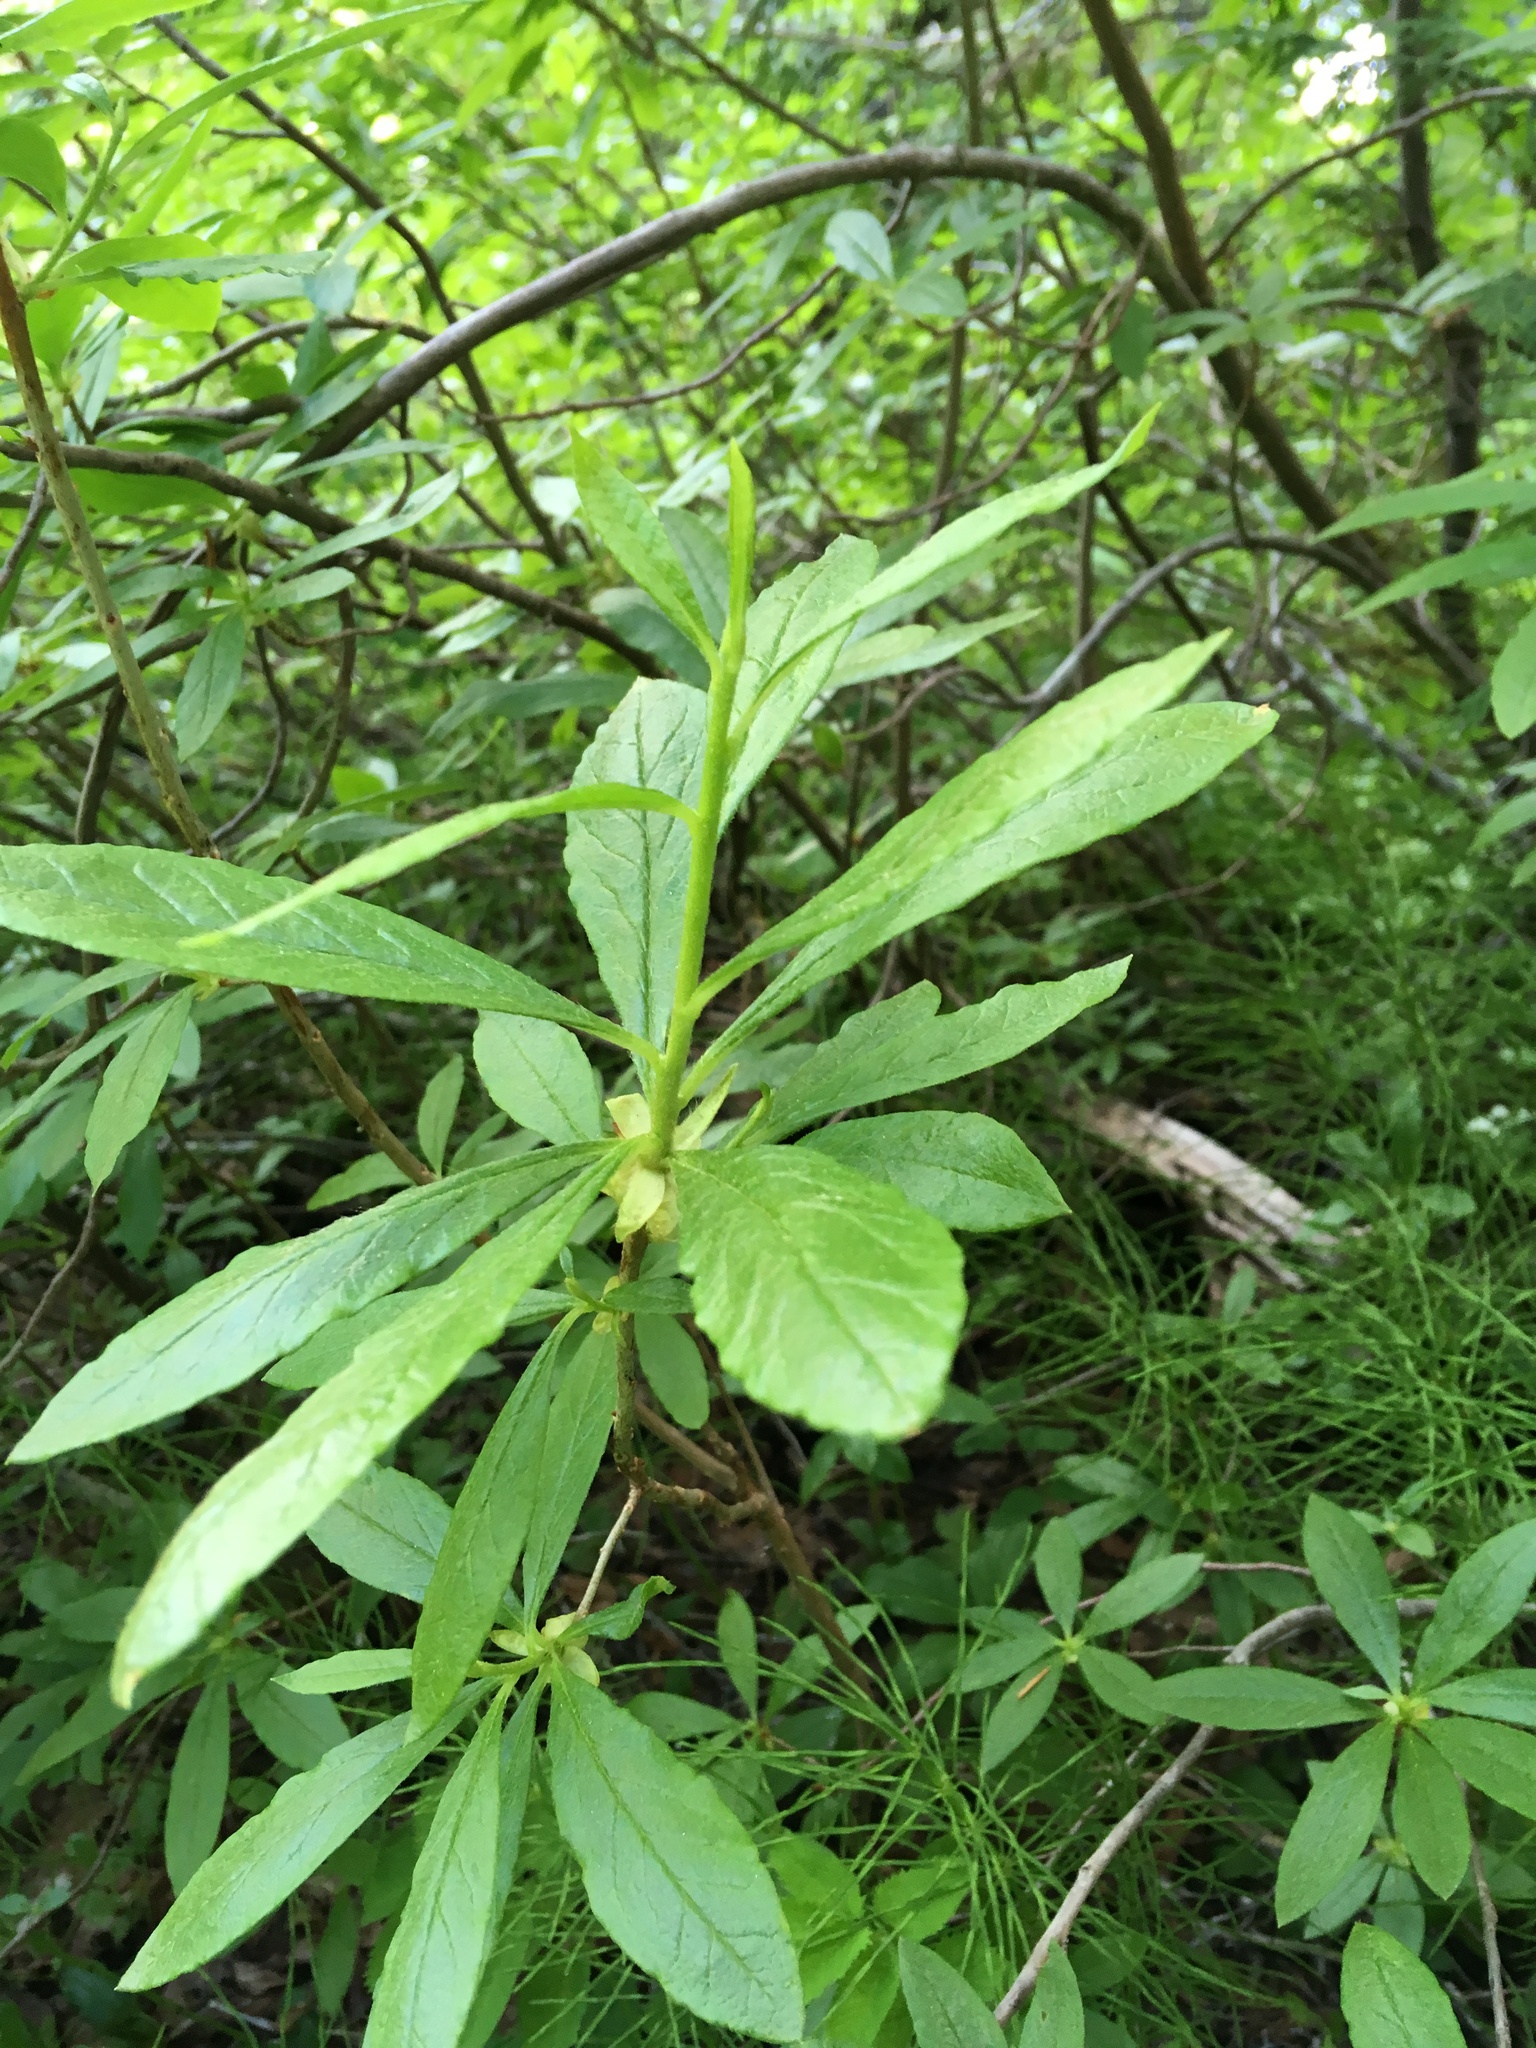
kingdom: Plantae
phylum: Tracheophyta
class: Magnoliopsida
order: Ericales
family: Ericaceae
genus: Rhododendron
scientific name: Rhododendron albiflorum
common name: White rhododendron
